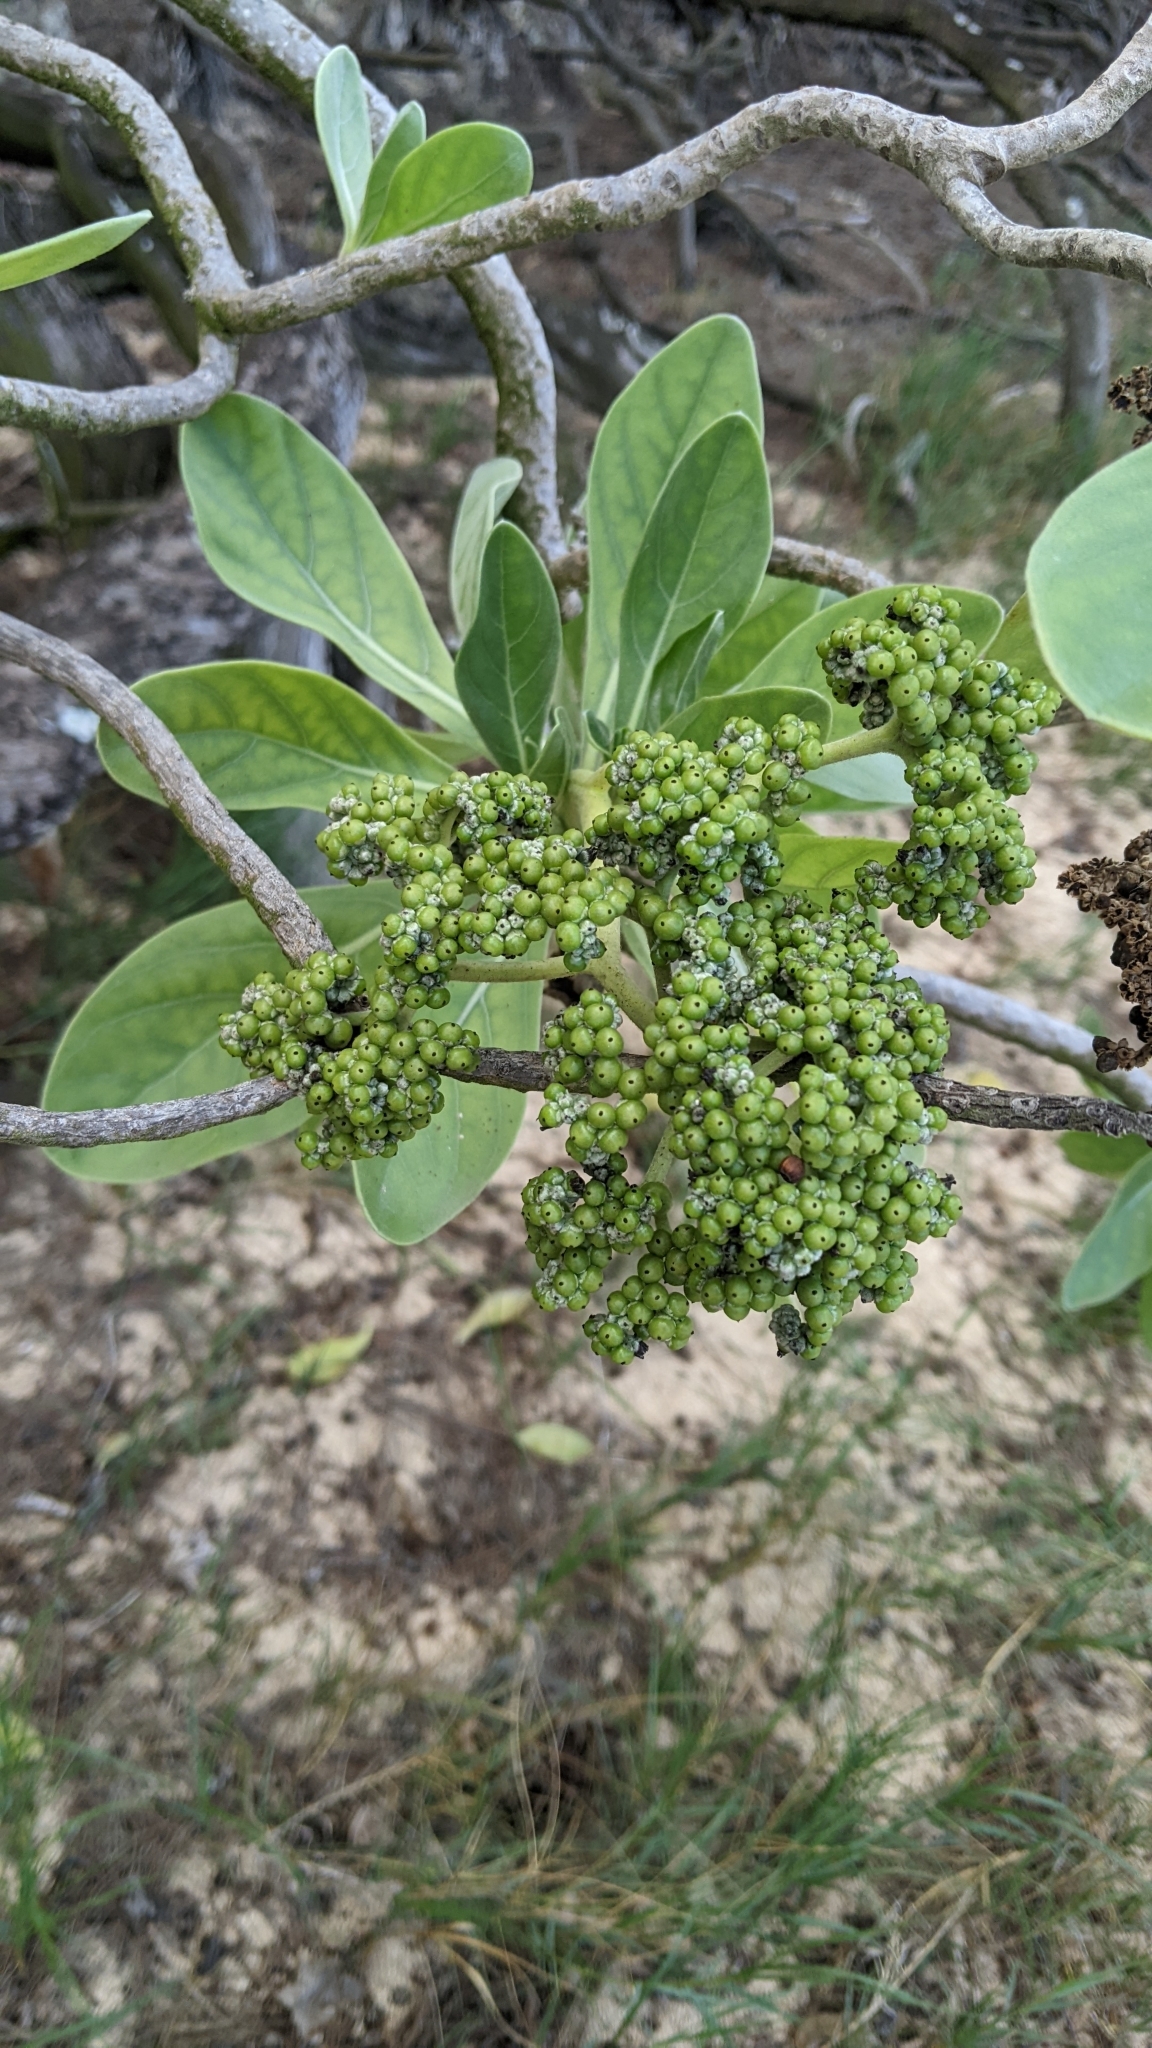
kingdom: Plantae
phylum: Tracheophyta
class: Magnoliopsida
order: Boraginales
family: Heliotropiaceae
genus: Heliotropium
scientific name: Heliotropium velutinum
